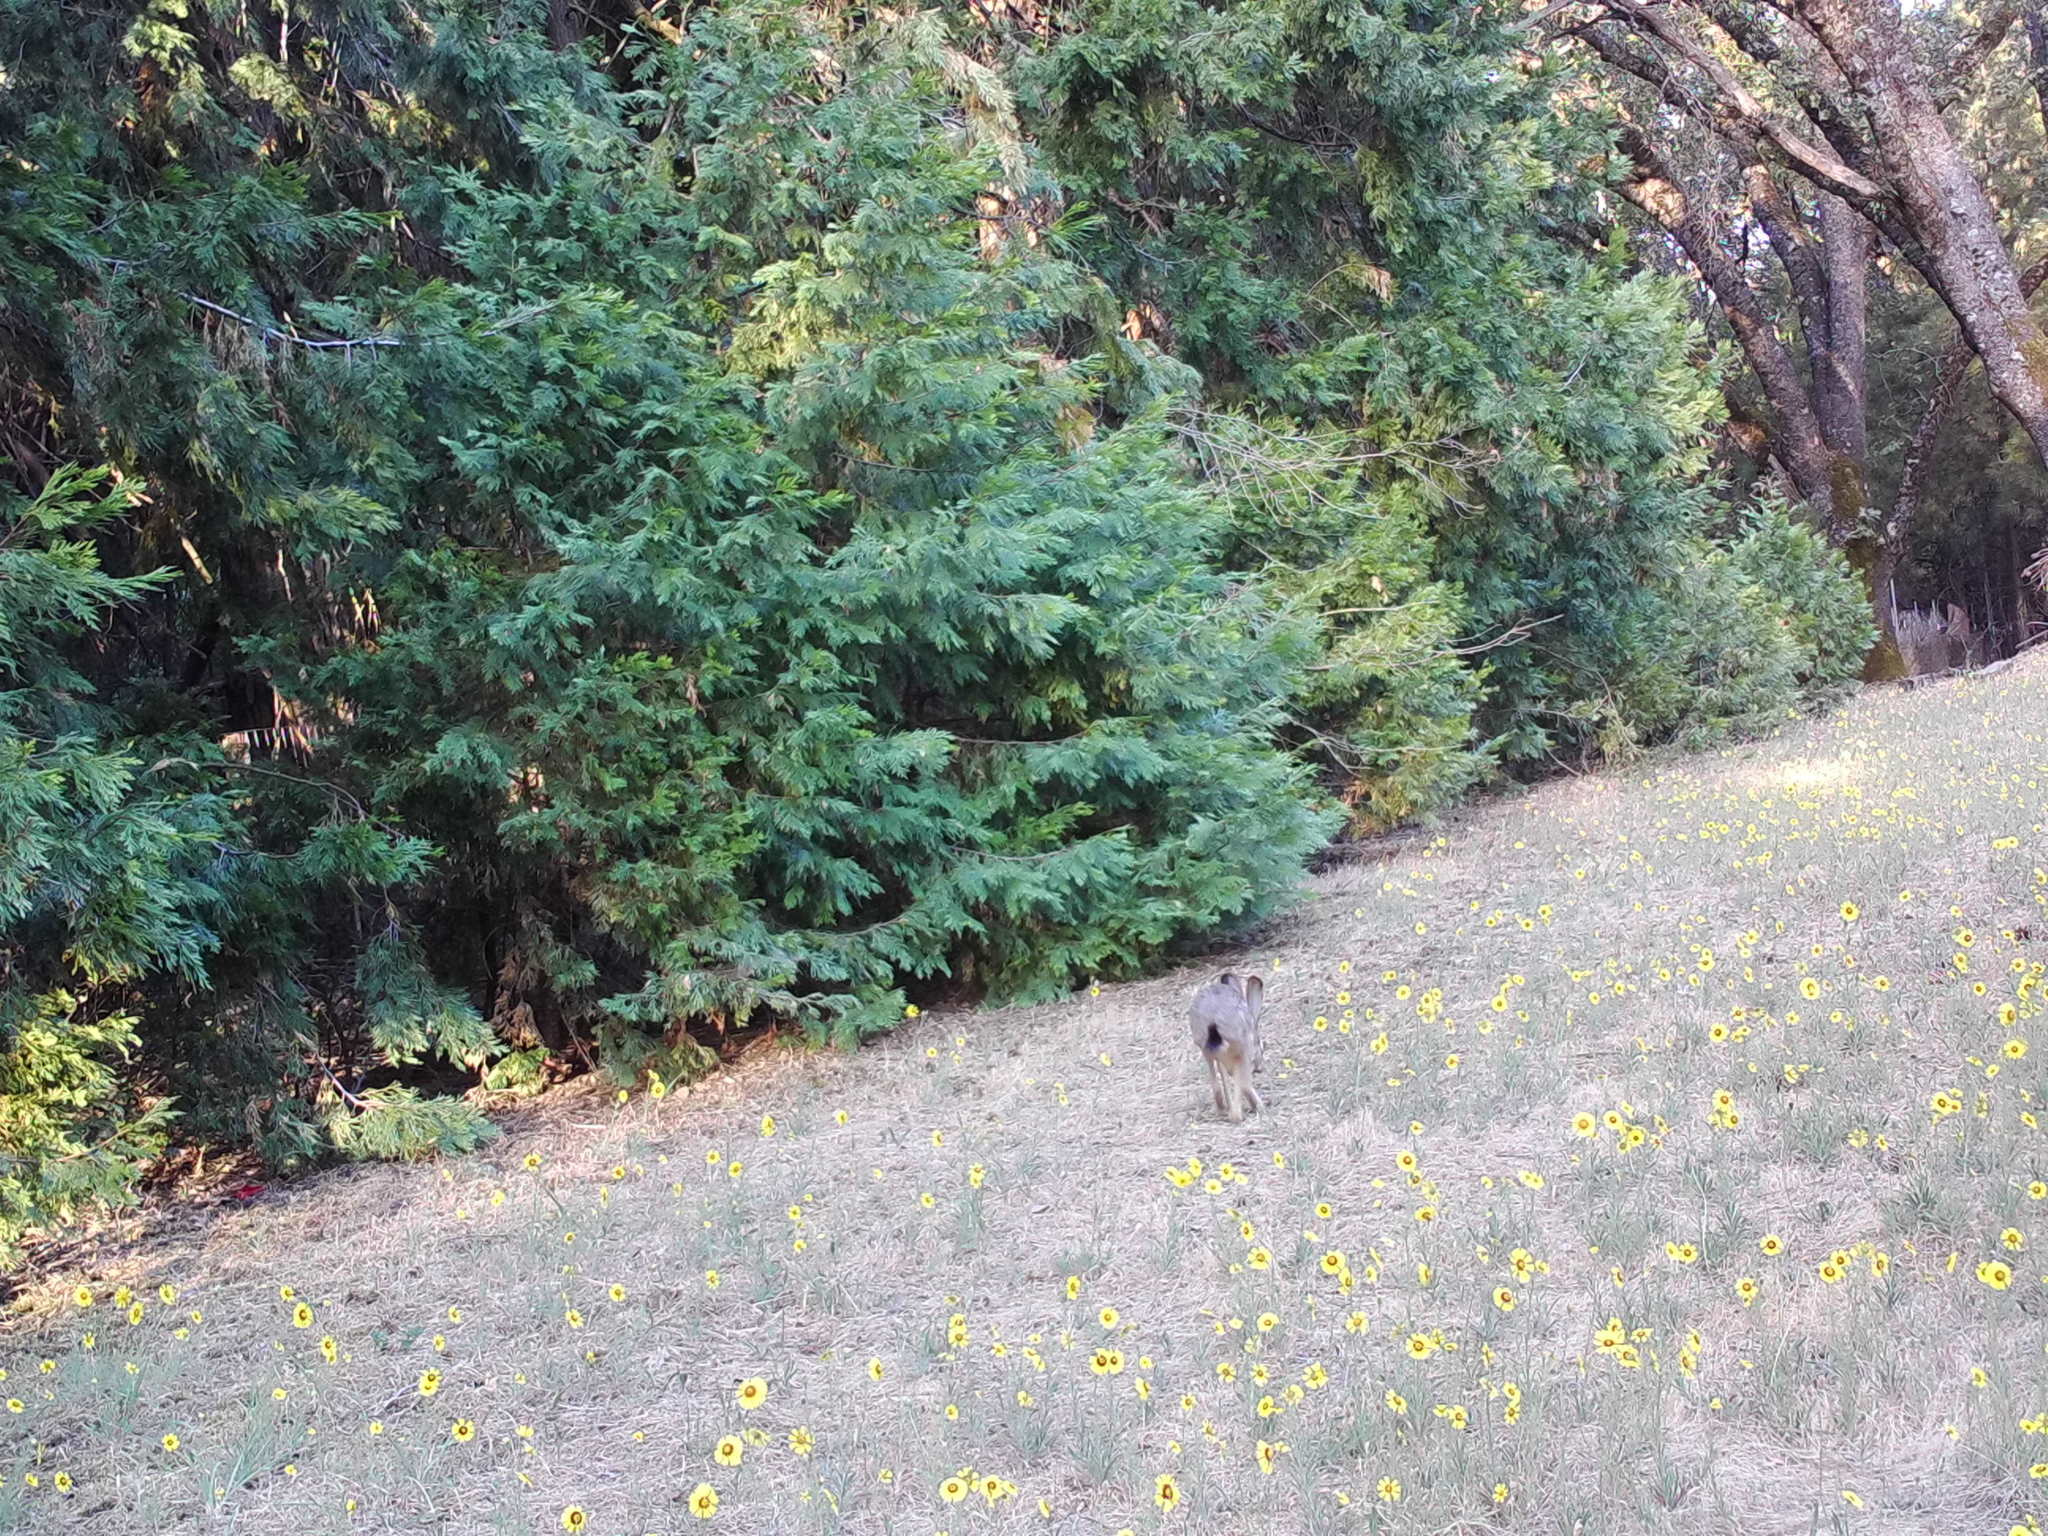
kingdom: Animalia
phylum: Chordata
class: Mammalia
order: Lagomorpha
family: Leporidae
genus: Lepus
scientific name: Lepus californicus
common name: Black-tailed jackrabbit
